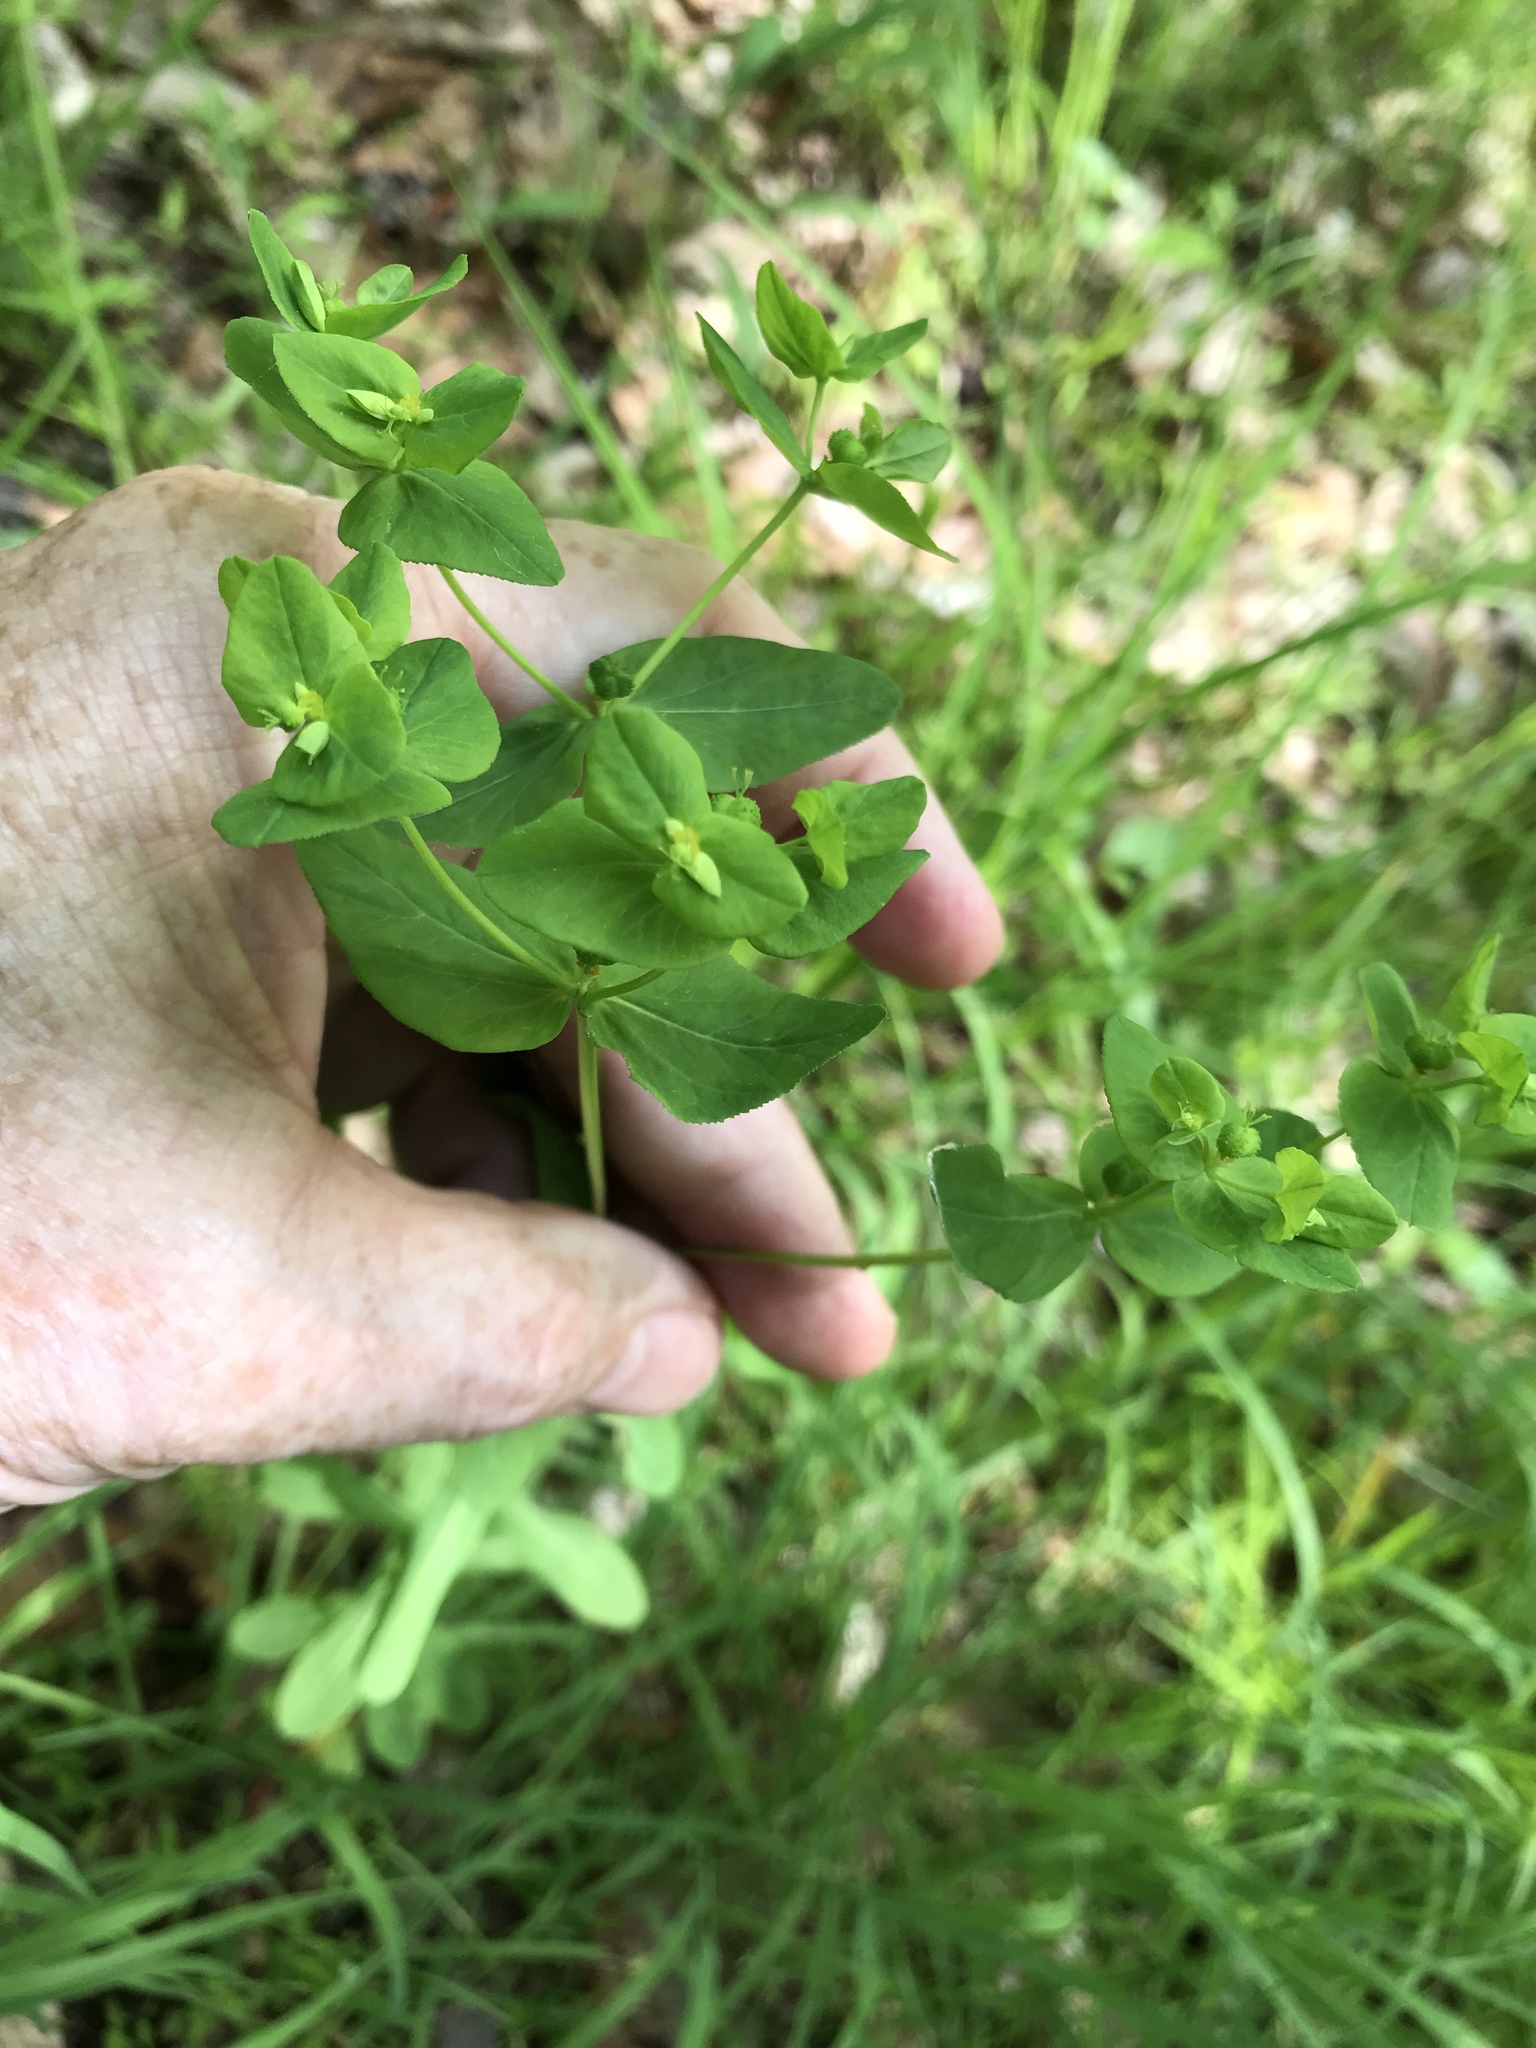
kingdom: Plantae
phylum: Tracheophyta
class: Magnoliopsida
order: Malpighiales
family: Euphorbiaceae
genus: Euphorbia
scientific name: Euphorbia spathulata
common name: Blunt spurge
